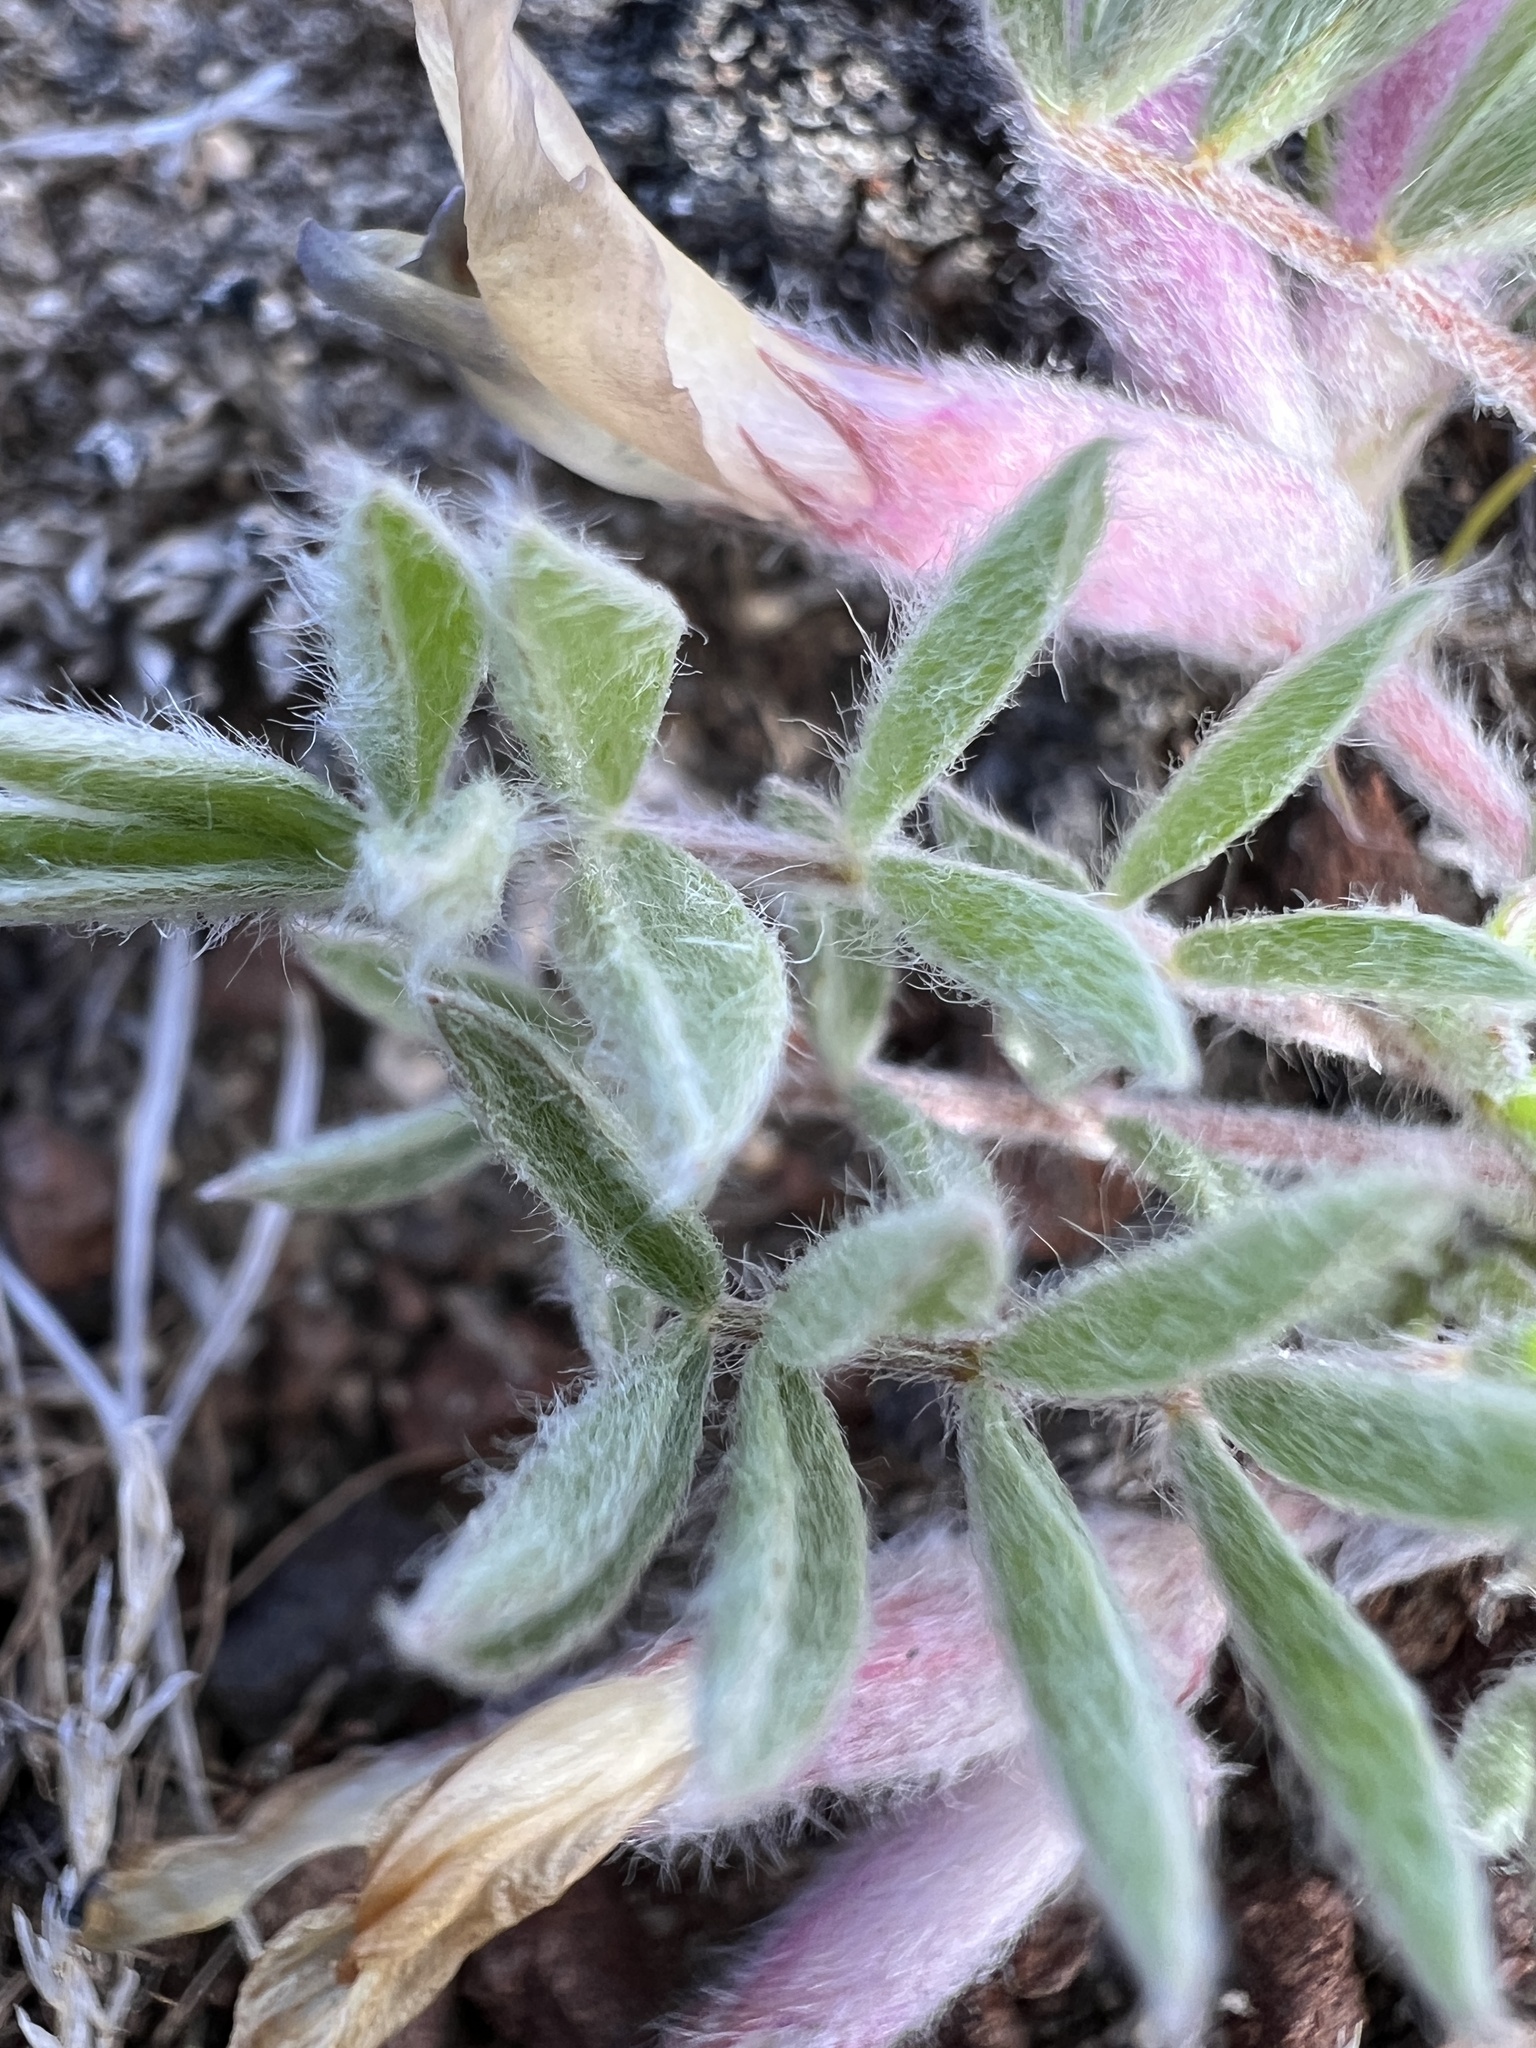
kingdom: Plantae
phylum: Tracheophyta
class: Magnoliopsida
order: Fabales
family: Fabaceae
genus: Astragalus
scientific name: Astragalus purshii
